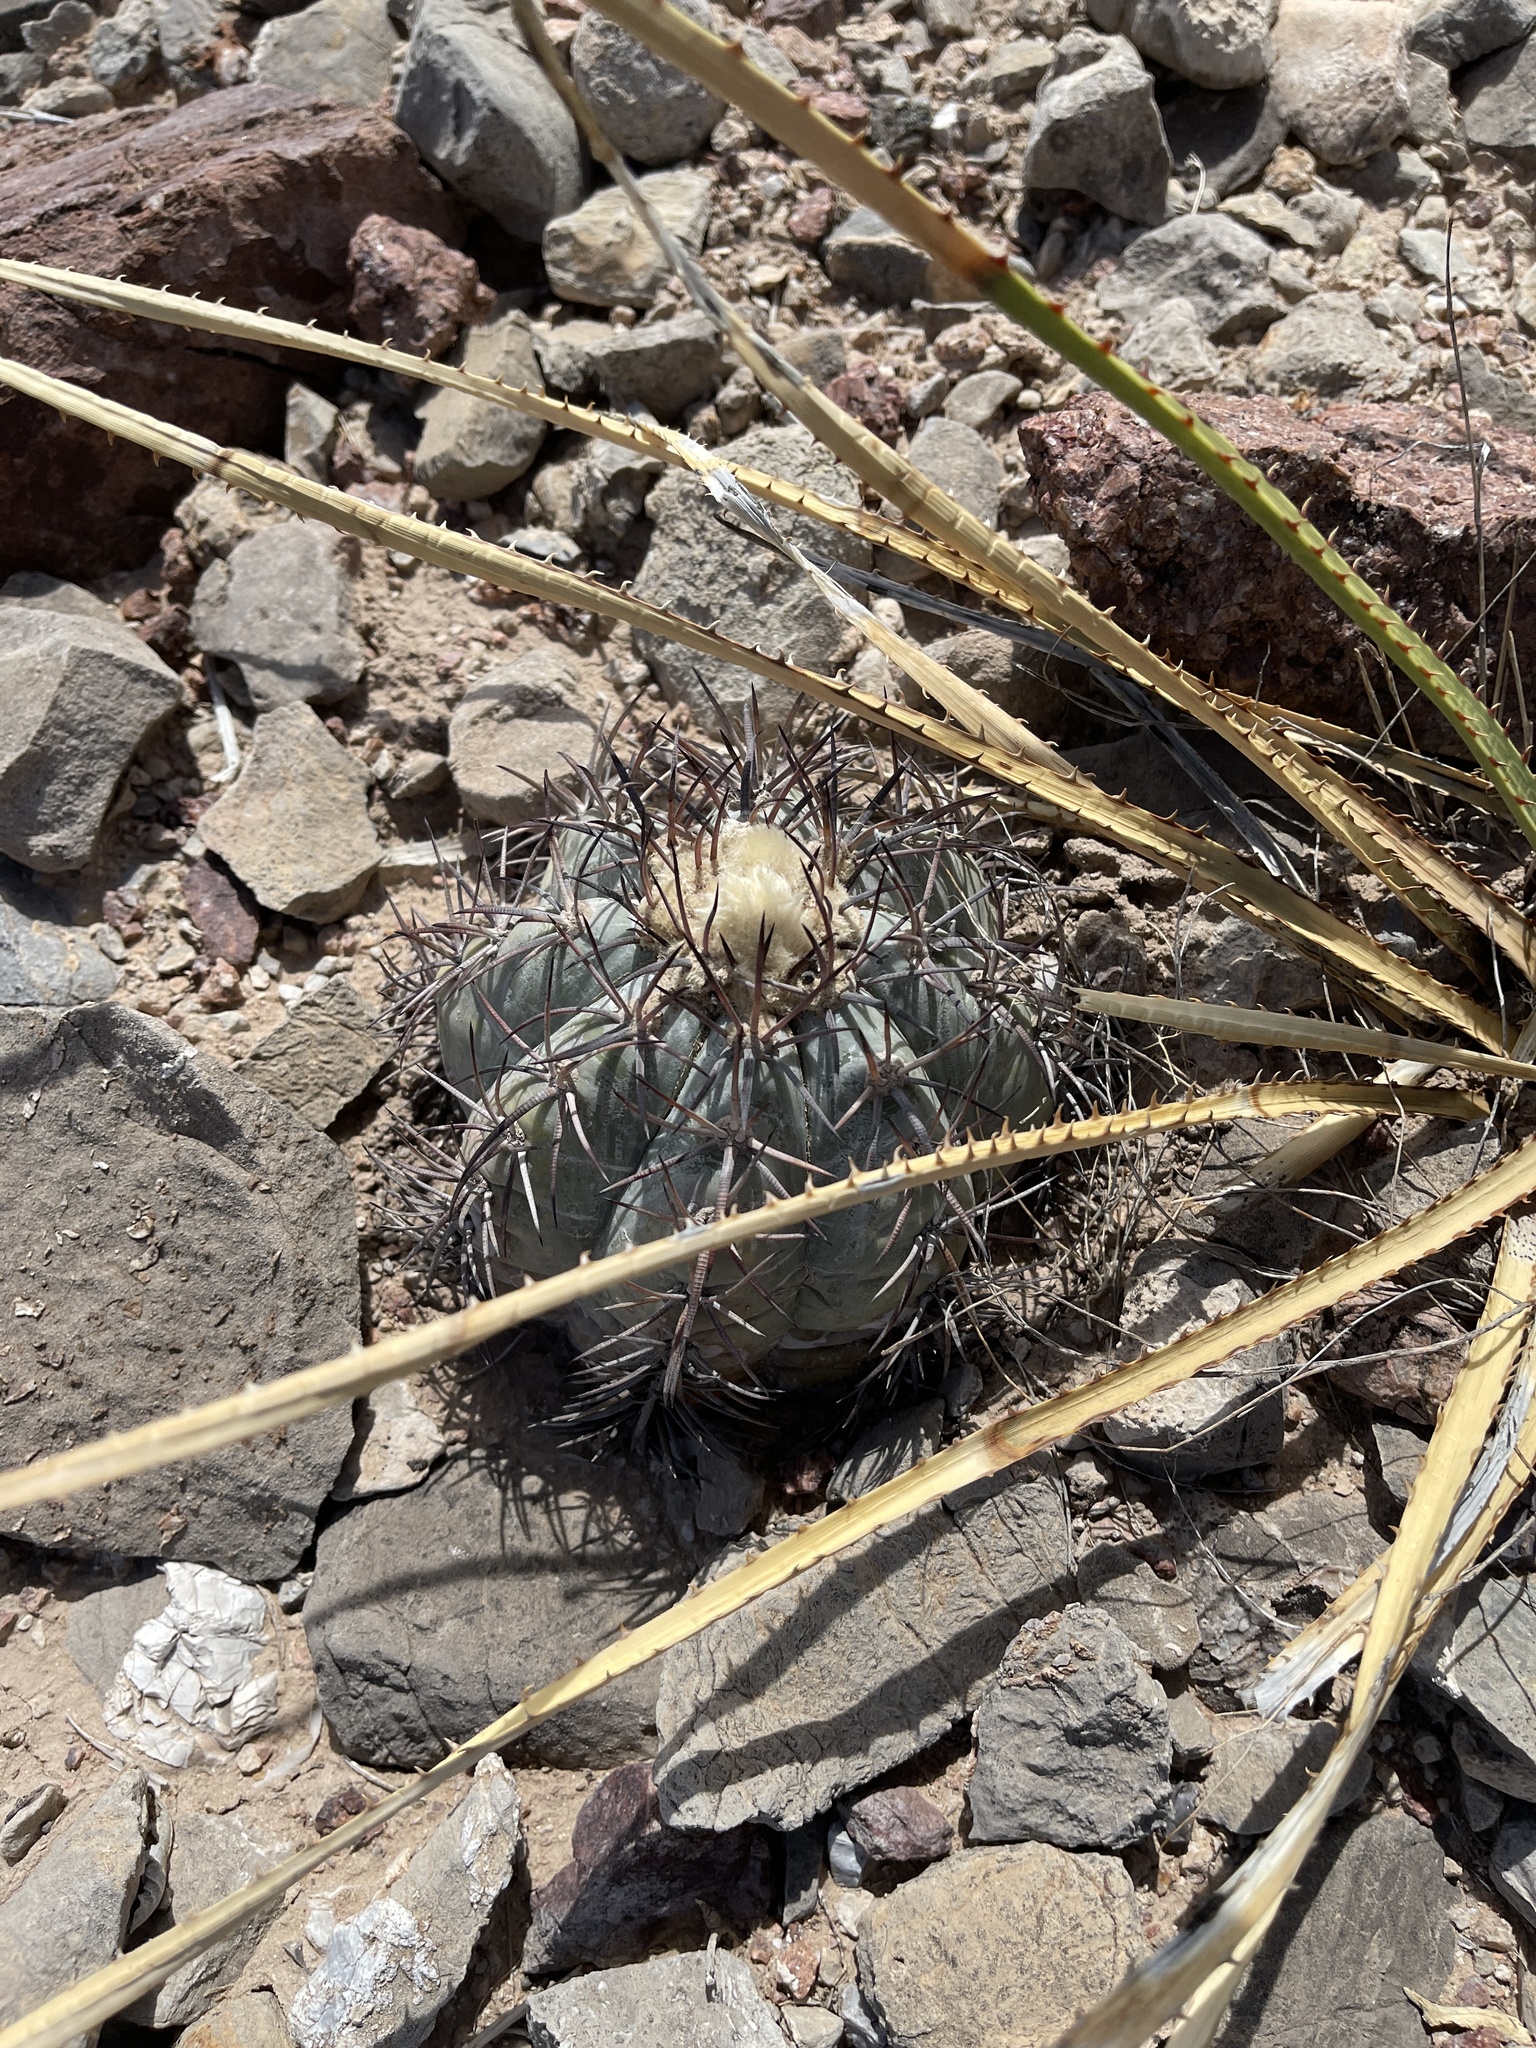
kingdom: Plantae
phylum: Tracheophyta
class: Magnoliopsida
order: Caryophyllales
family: Cactaceae
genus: Echinocactus
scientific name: Echinocactus horizonthalonius
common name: Devilshead
